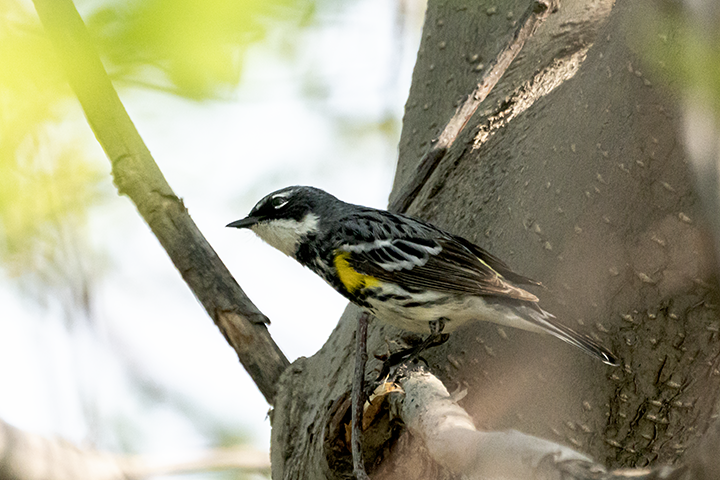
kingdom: Animalia
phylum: Chordata
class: Aves
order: Passeriformes
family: Parulidae
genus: Setophaga
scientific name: Setophaga coronata
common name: Myrtle warbler
